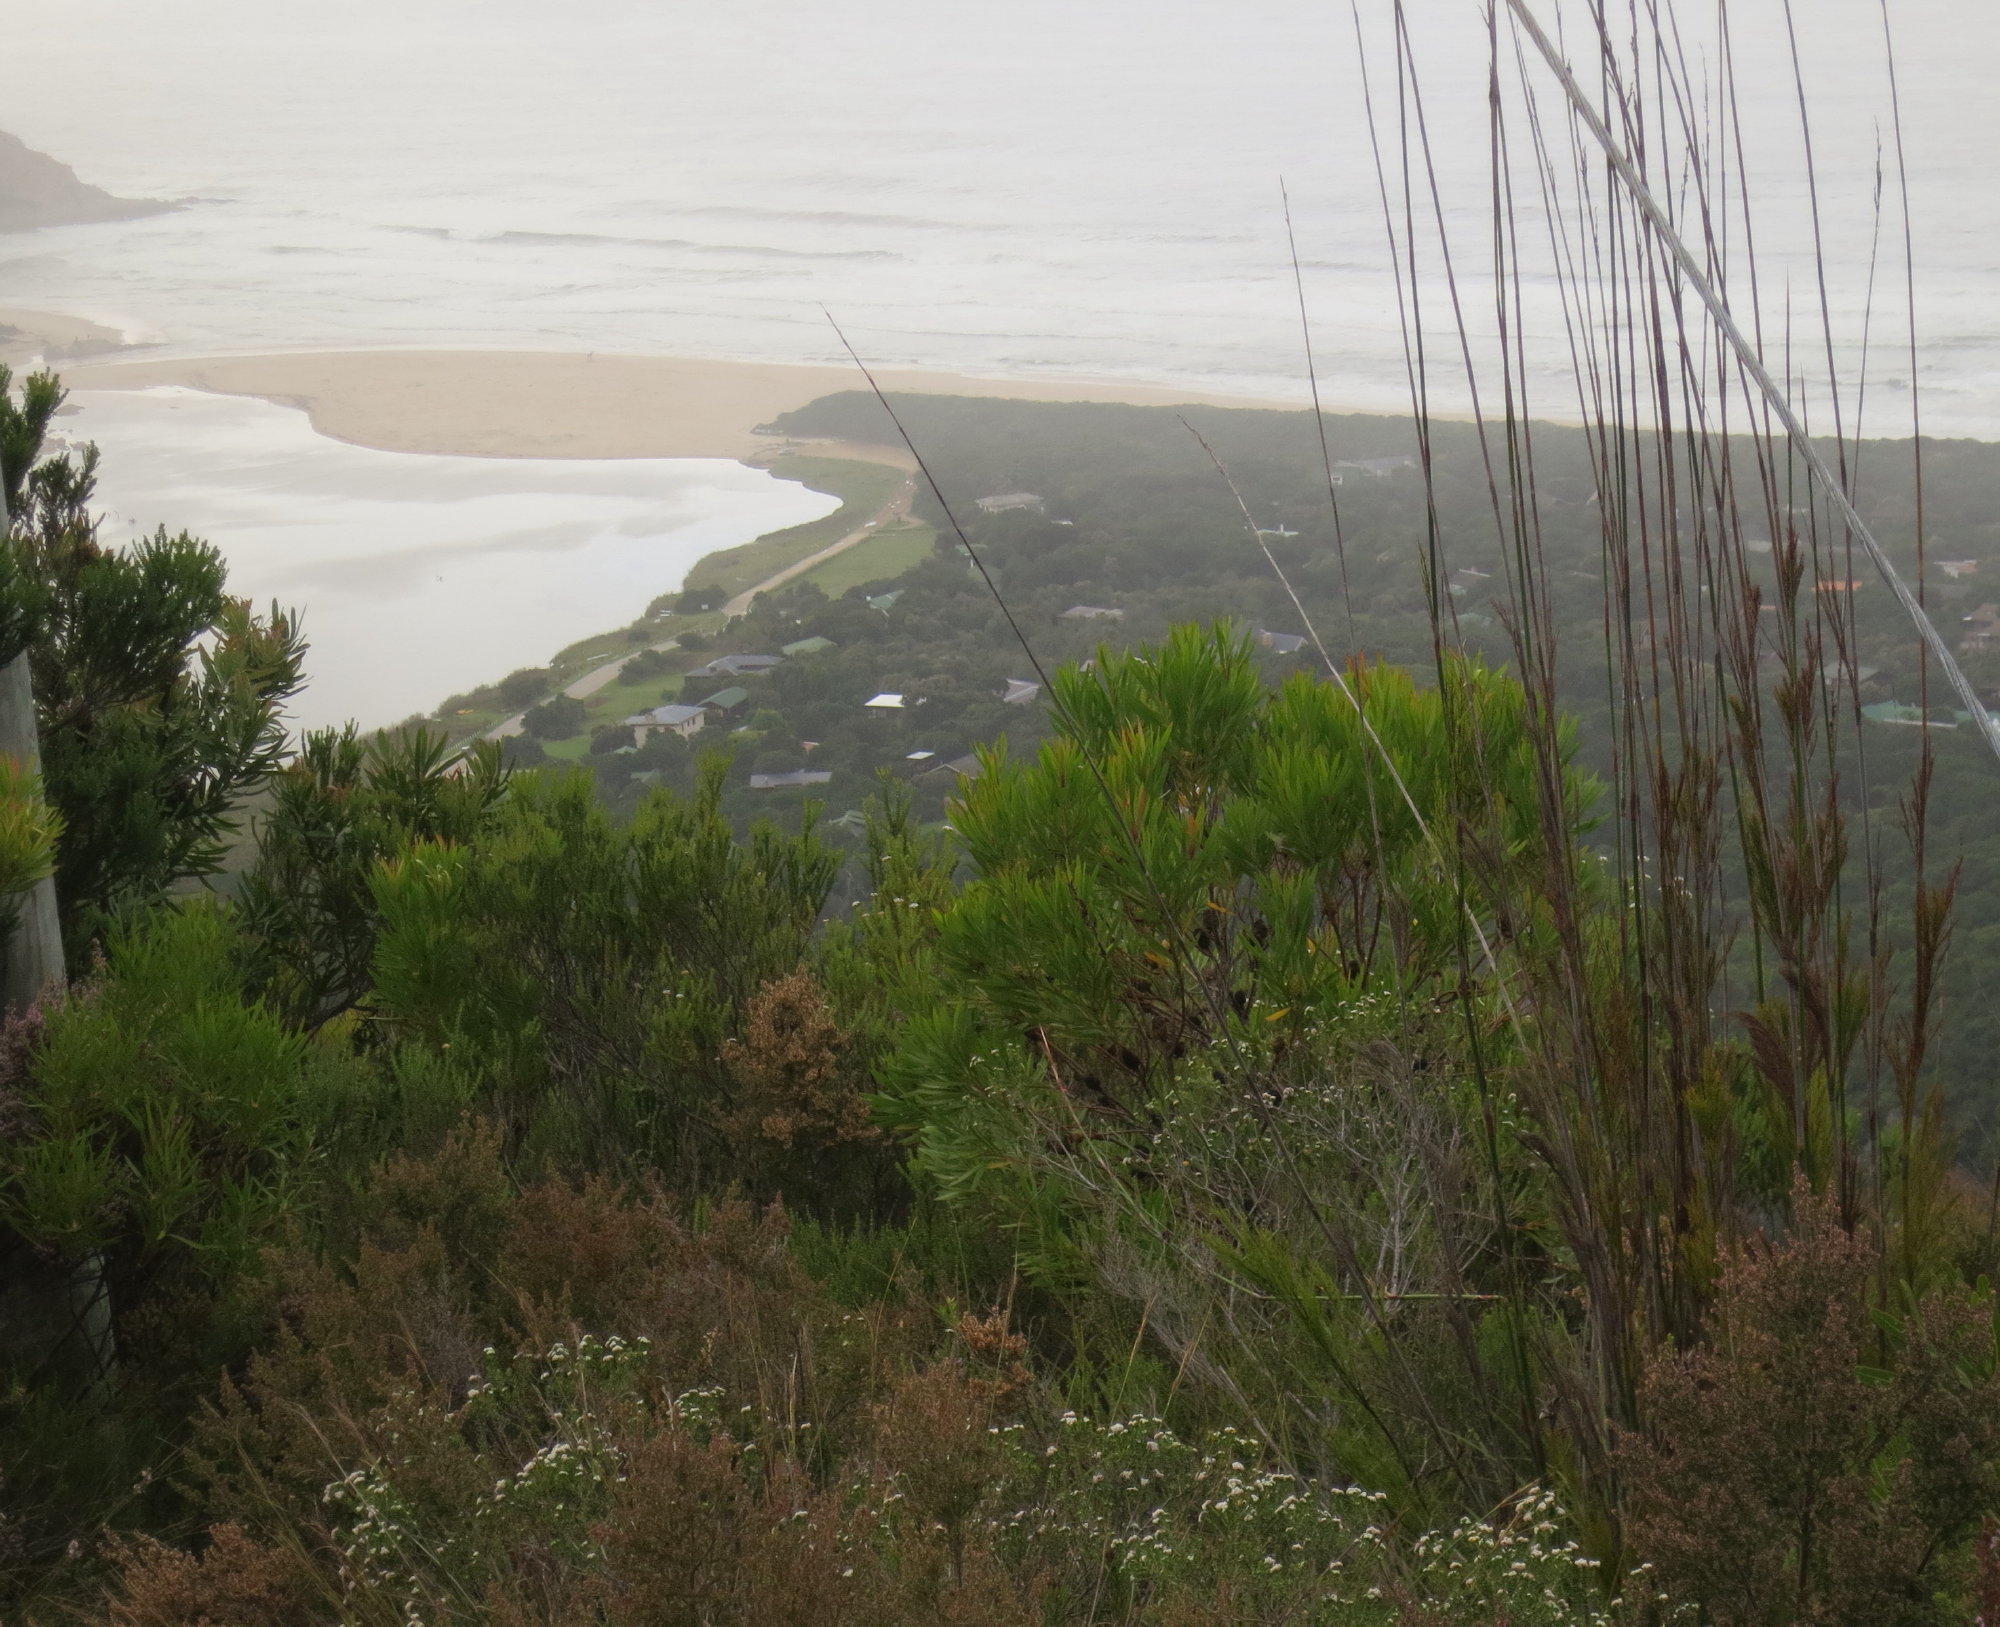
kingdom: Plantae
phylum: Tracheophyta
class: Magnoliopsida
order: Proteales
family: Proteaceae
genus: Leucadendron
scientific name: Leucadendron eucalyptifolium
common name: Gum-leaved conebush
